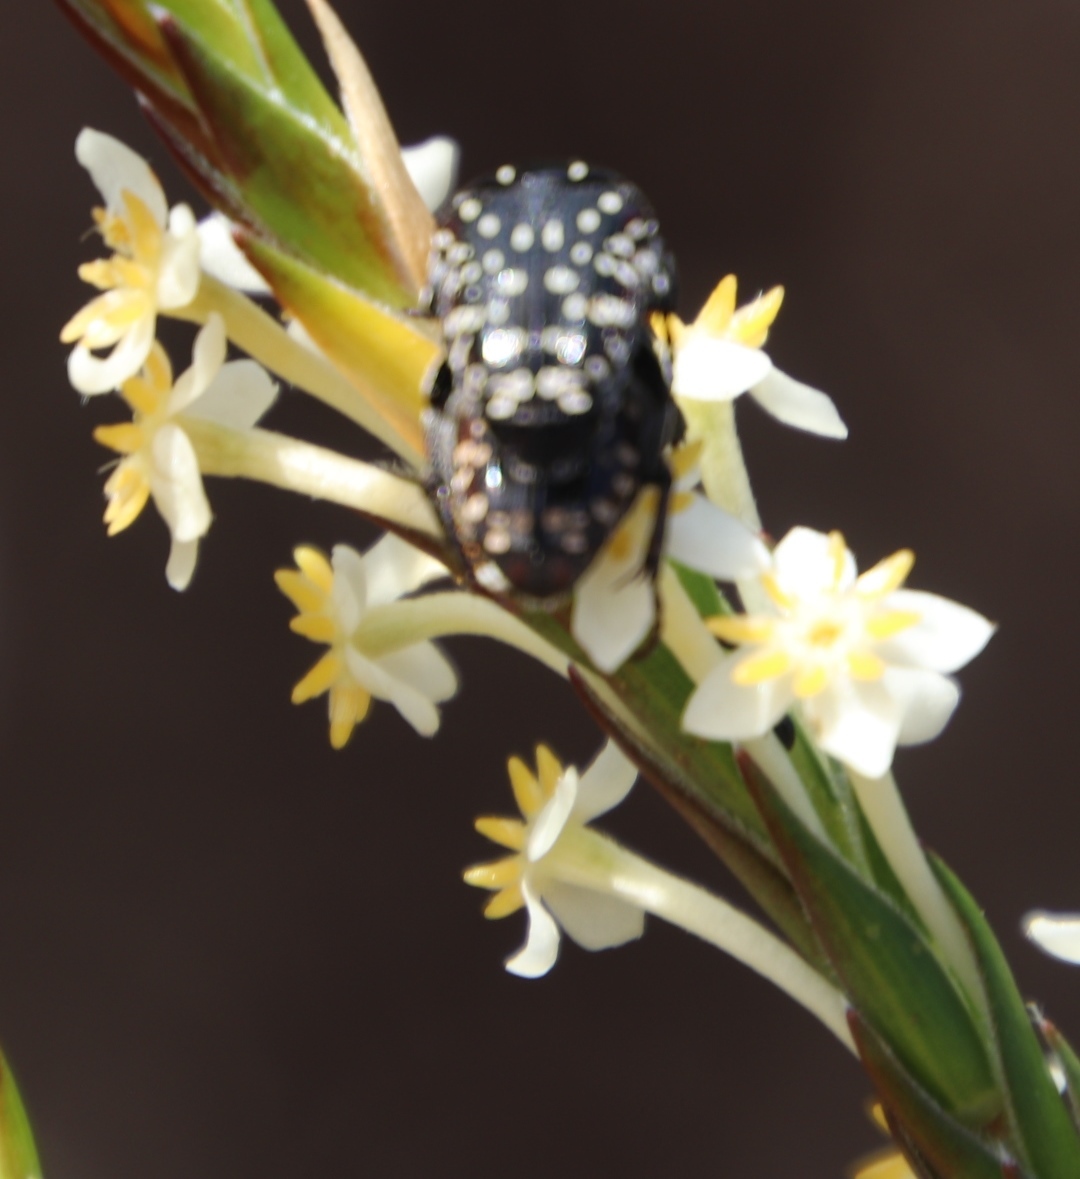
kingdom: Animalia
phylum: Arthropoda
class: Insecta
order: Coleoptera
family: Scarabaeidae
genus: Oxythyrea
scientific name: Oxythyrea
